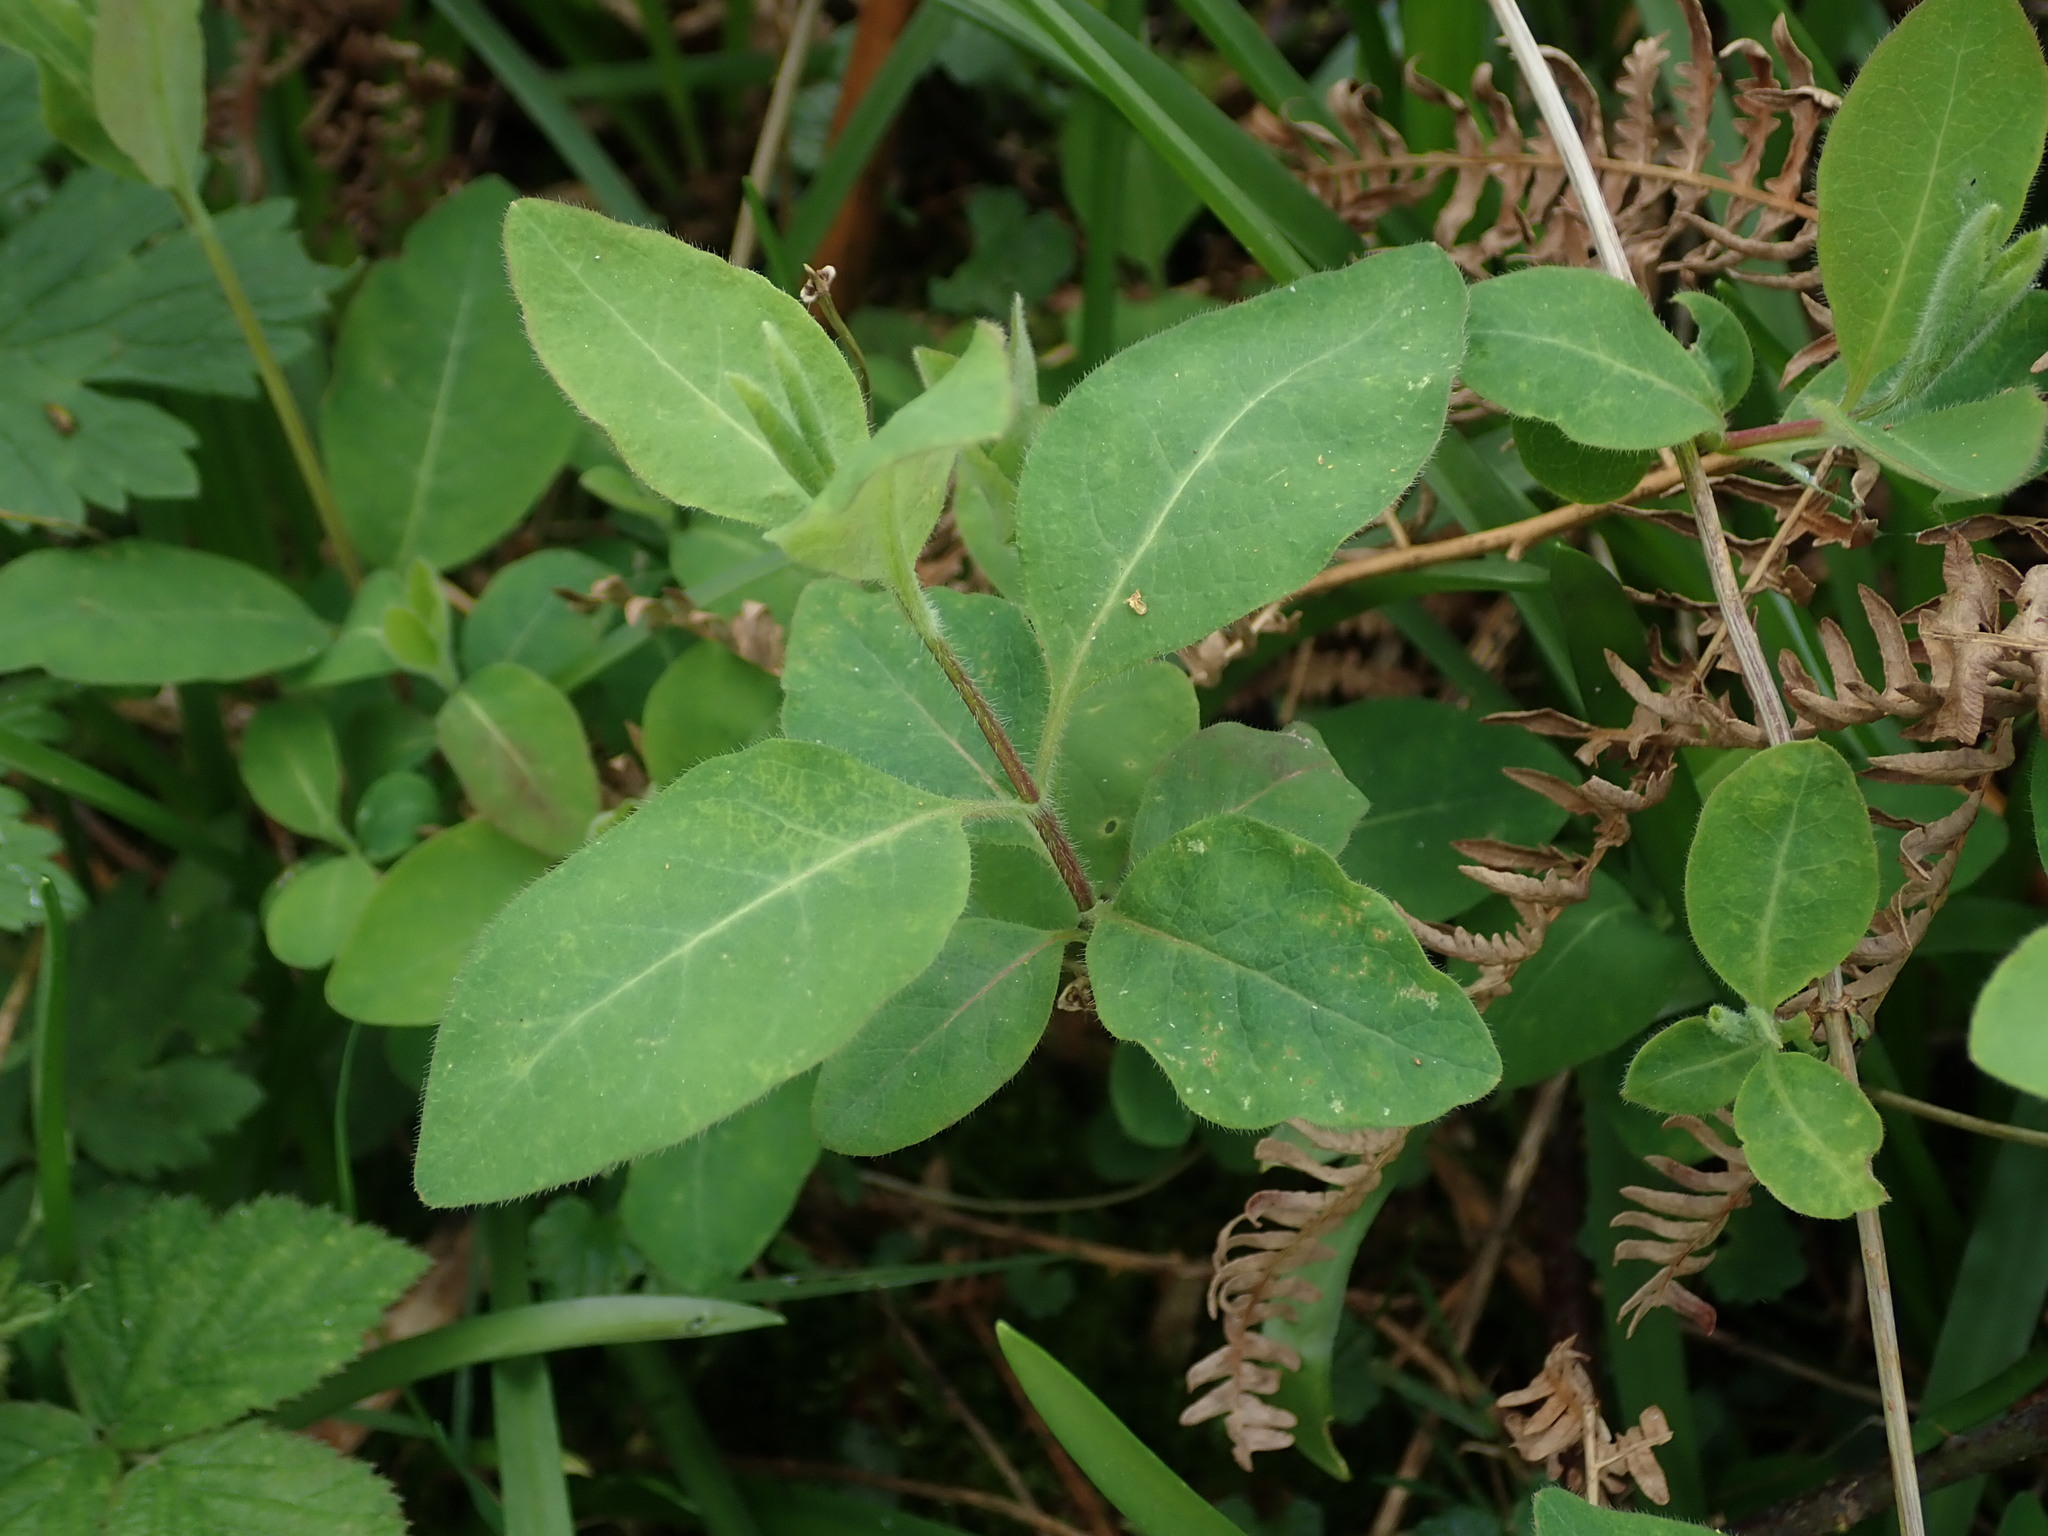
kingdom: Plantae
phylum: Tracheophyta
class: Magnoliopsida
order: Dipsacales
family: Caprifoliaceae
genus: Lonicera
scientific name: Lonicera periclymenum
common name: European honeysuckle
